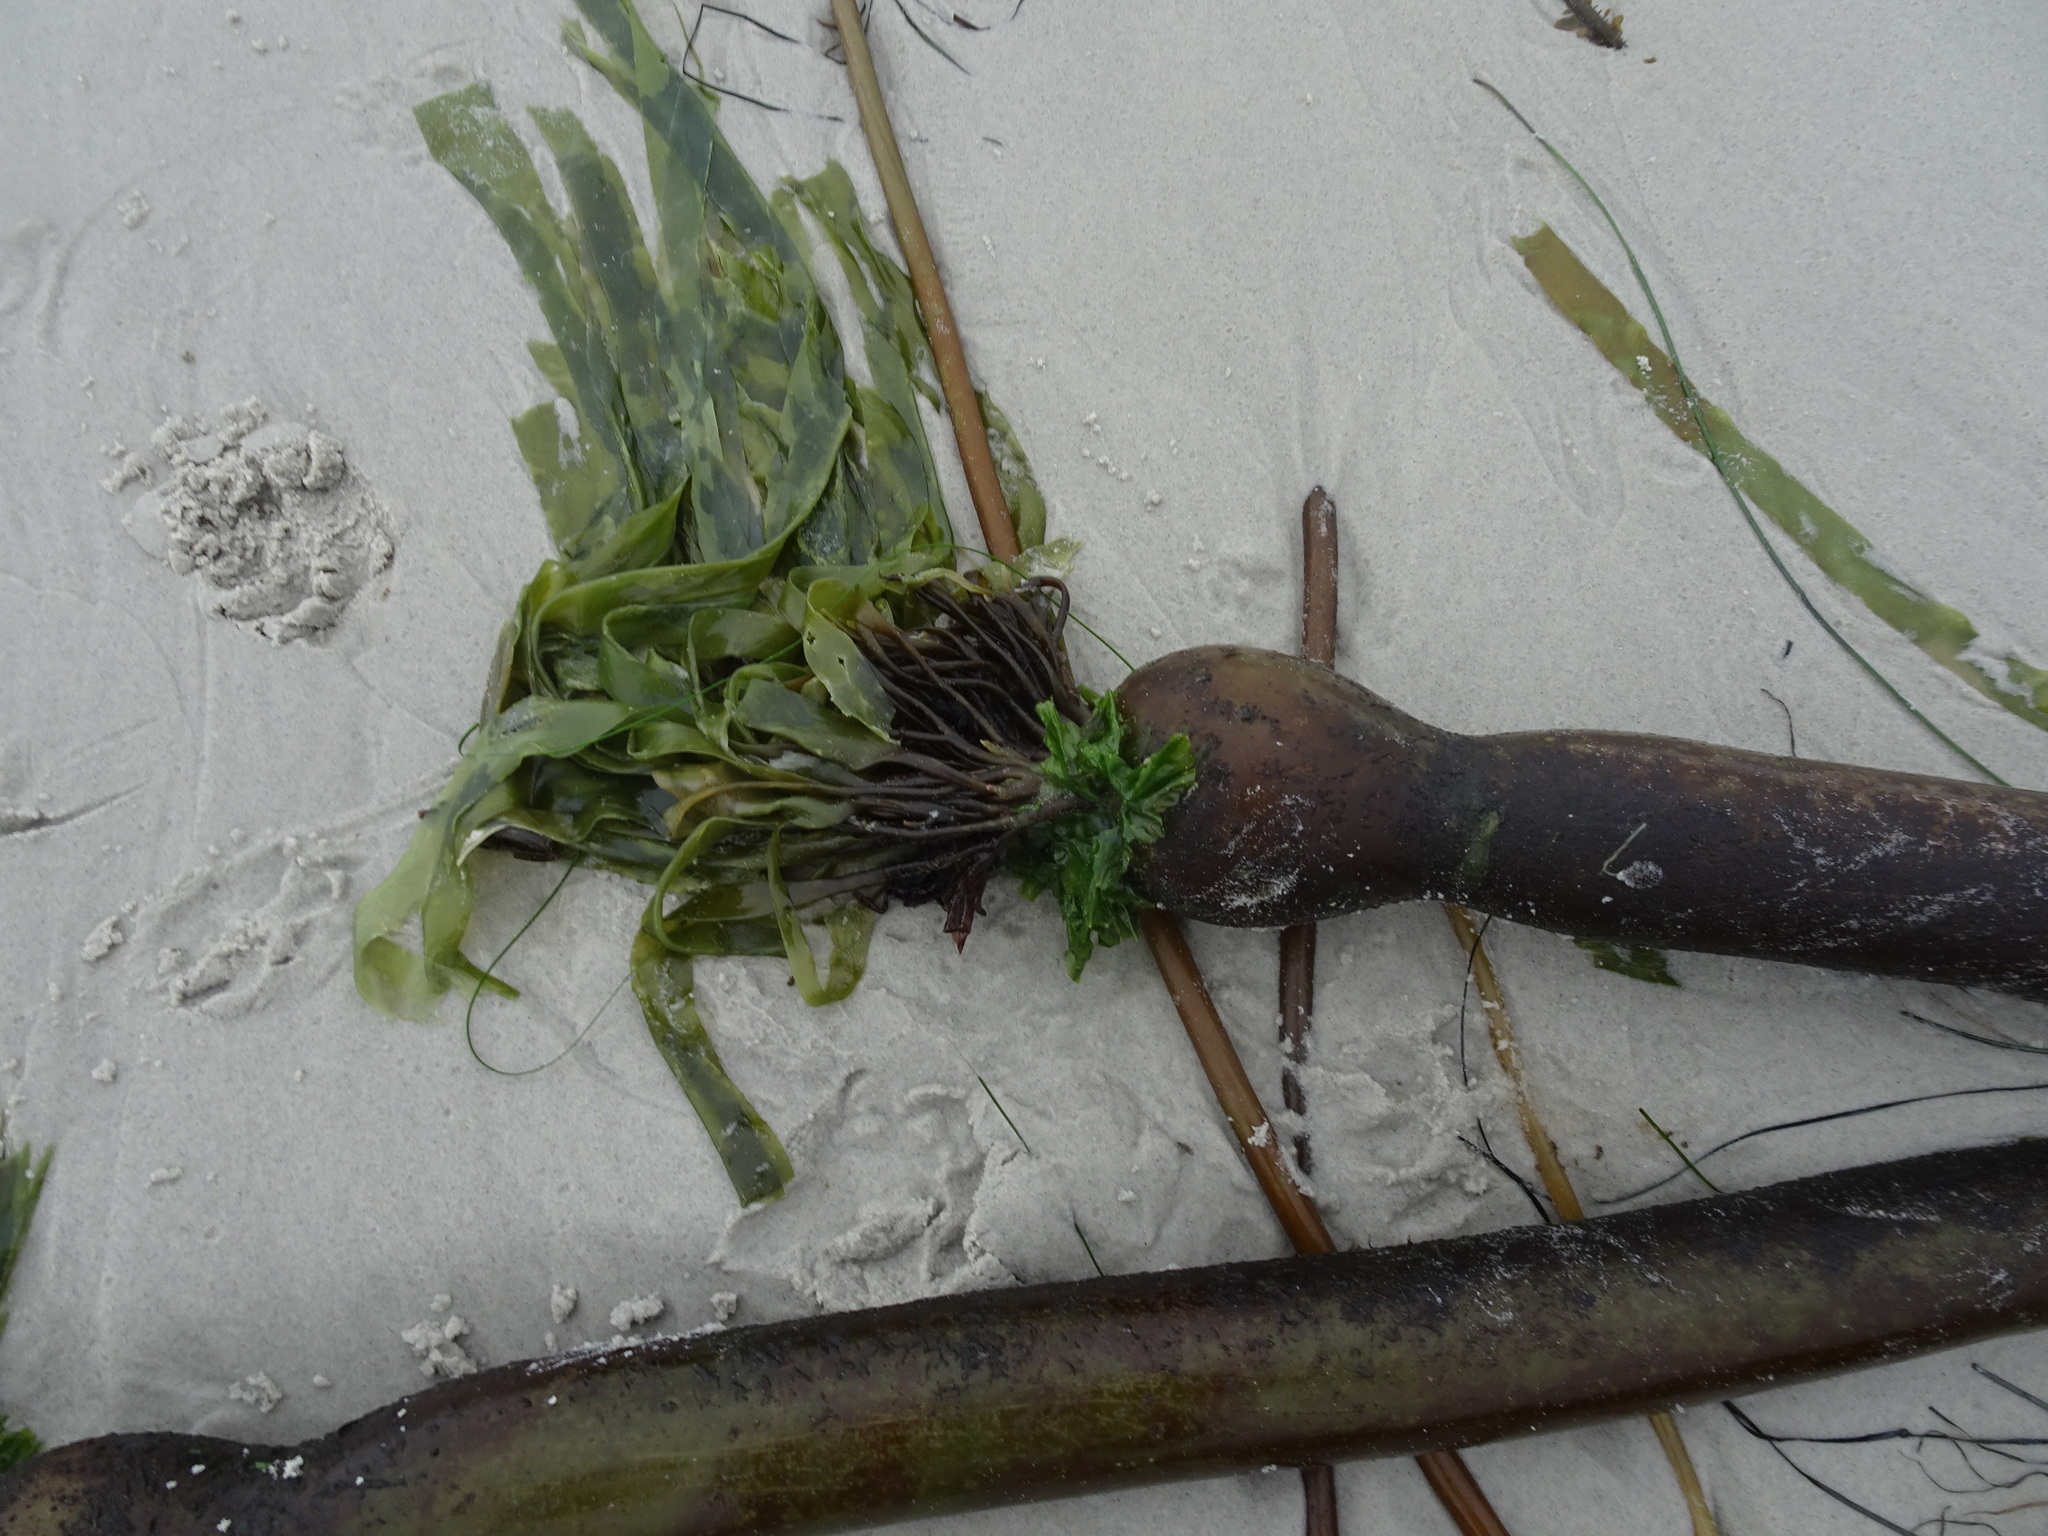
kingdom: Chromista
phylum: Ochrophyta
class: Phaeophyceae
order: Laminariales
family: Laminariaceae
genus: Nereocystis
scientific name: Nereocystis luetkeana
